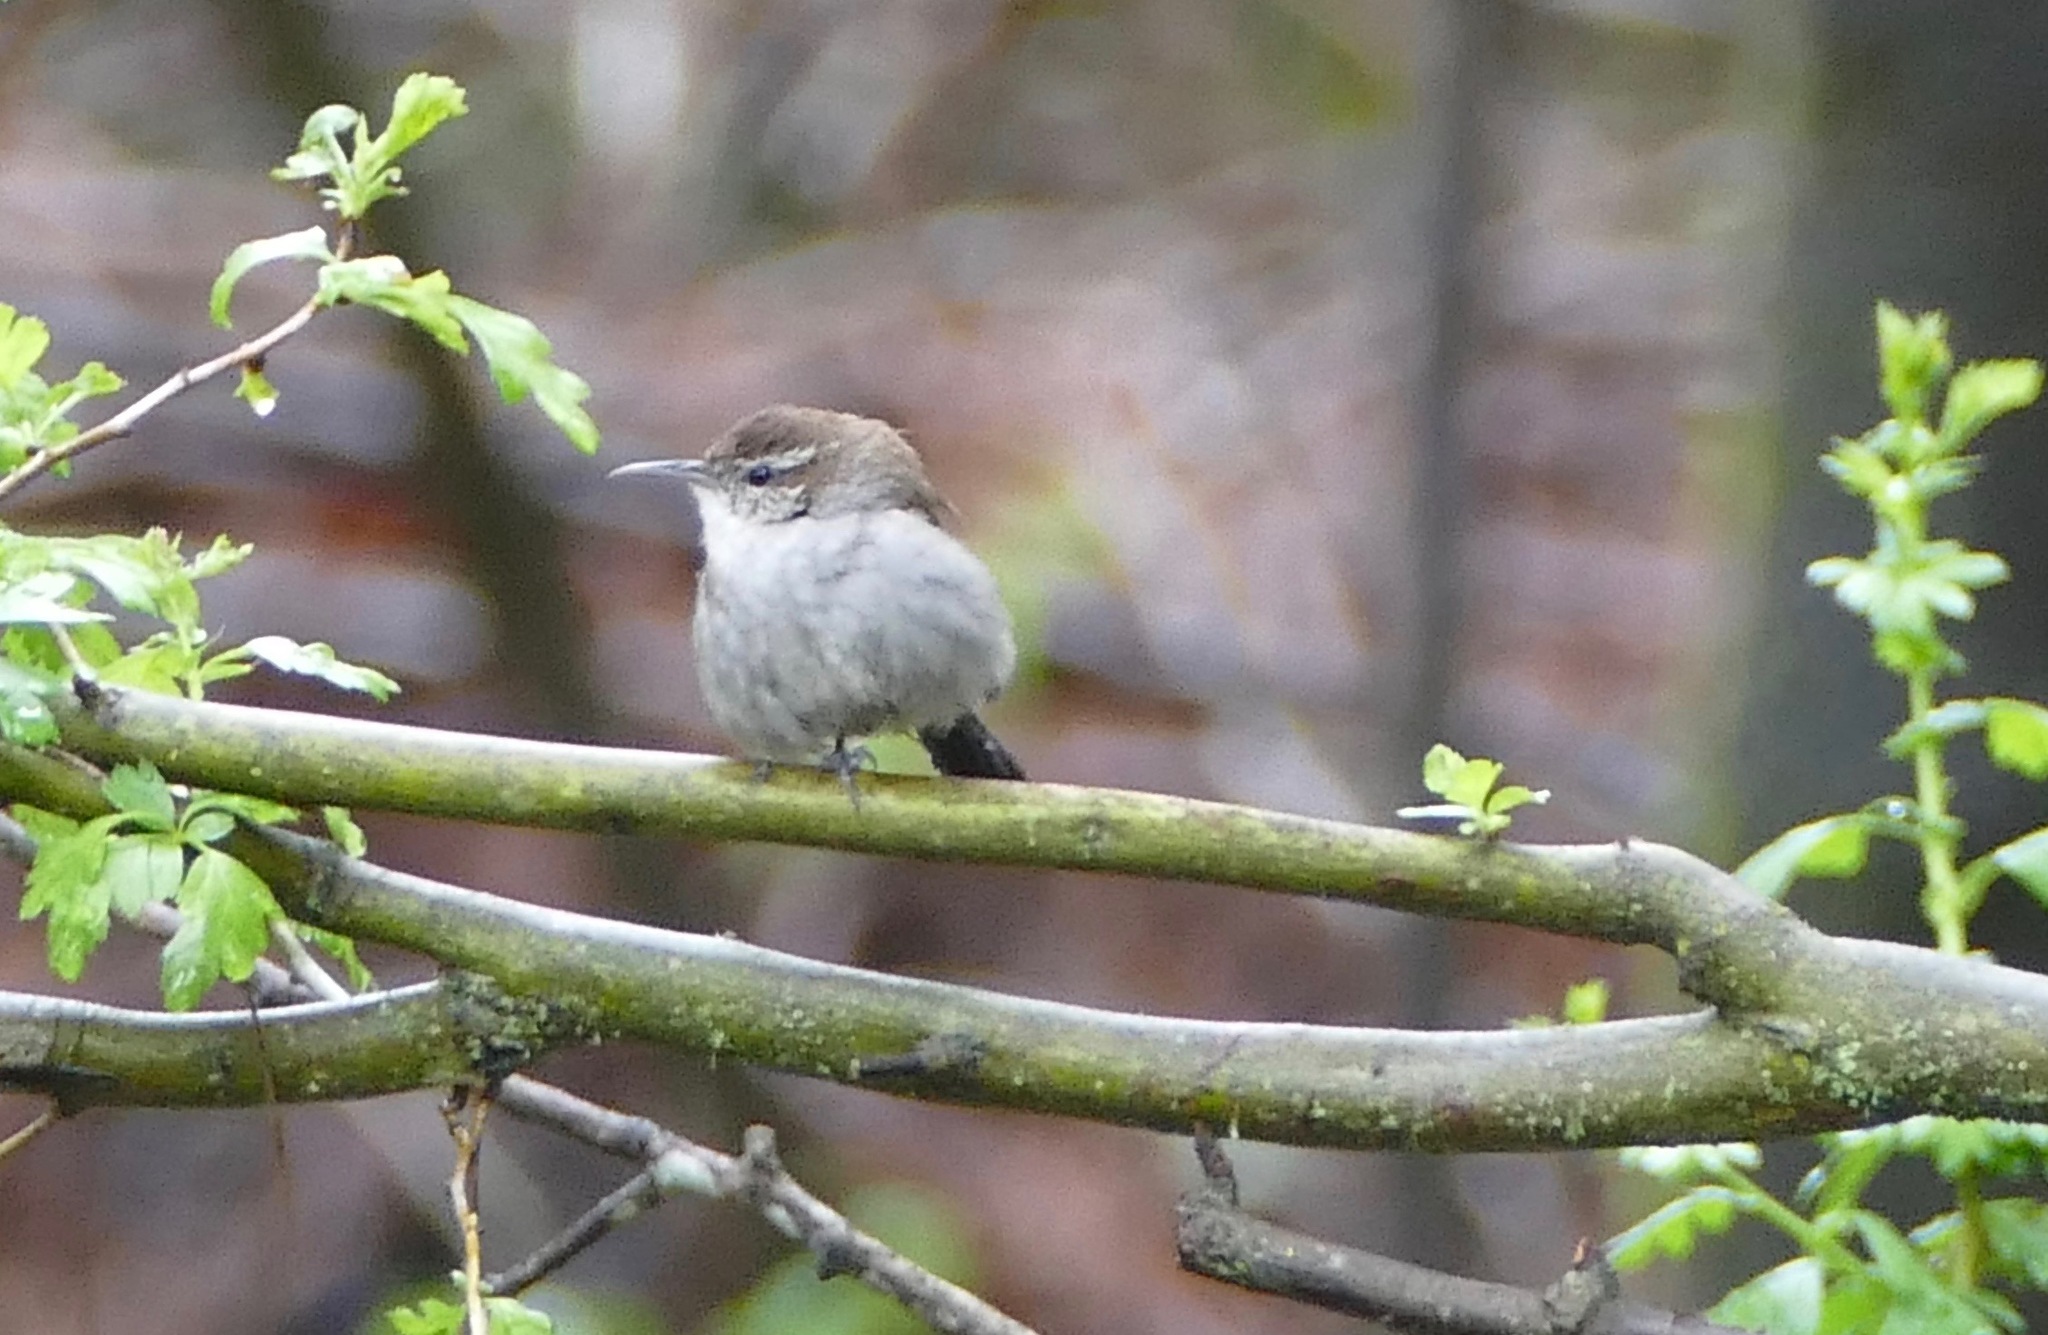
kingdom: Animalia
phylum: Chordata
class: Aves
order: Passeriformes
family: Troglodytidae
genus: Thryomanes
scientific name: Thryomanes bewickii
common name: Bewick's wren
